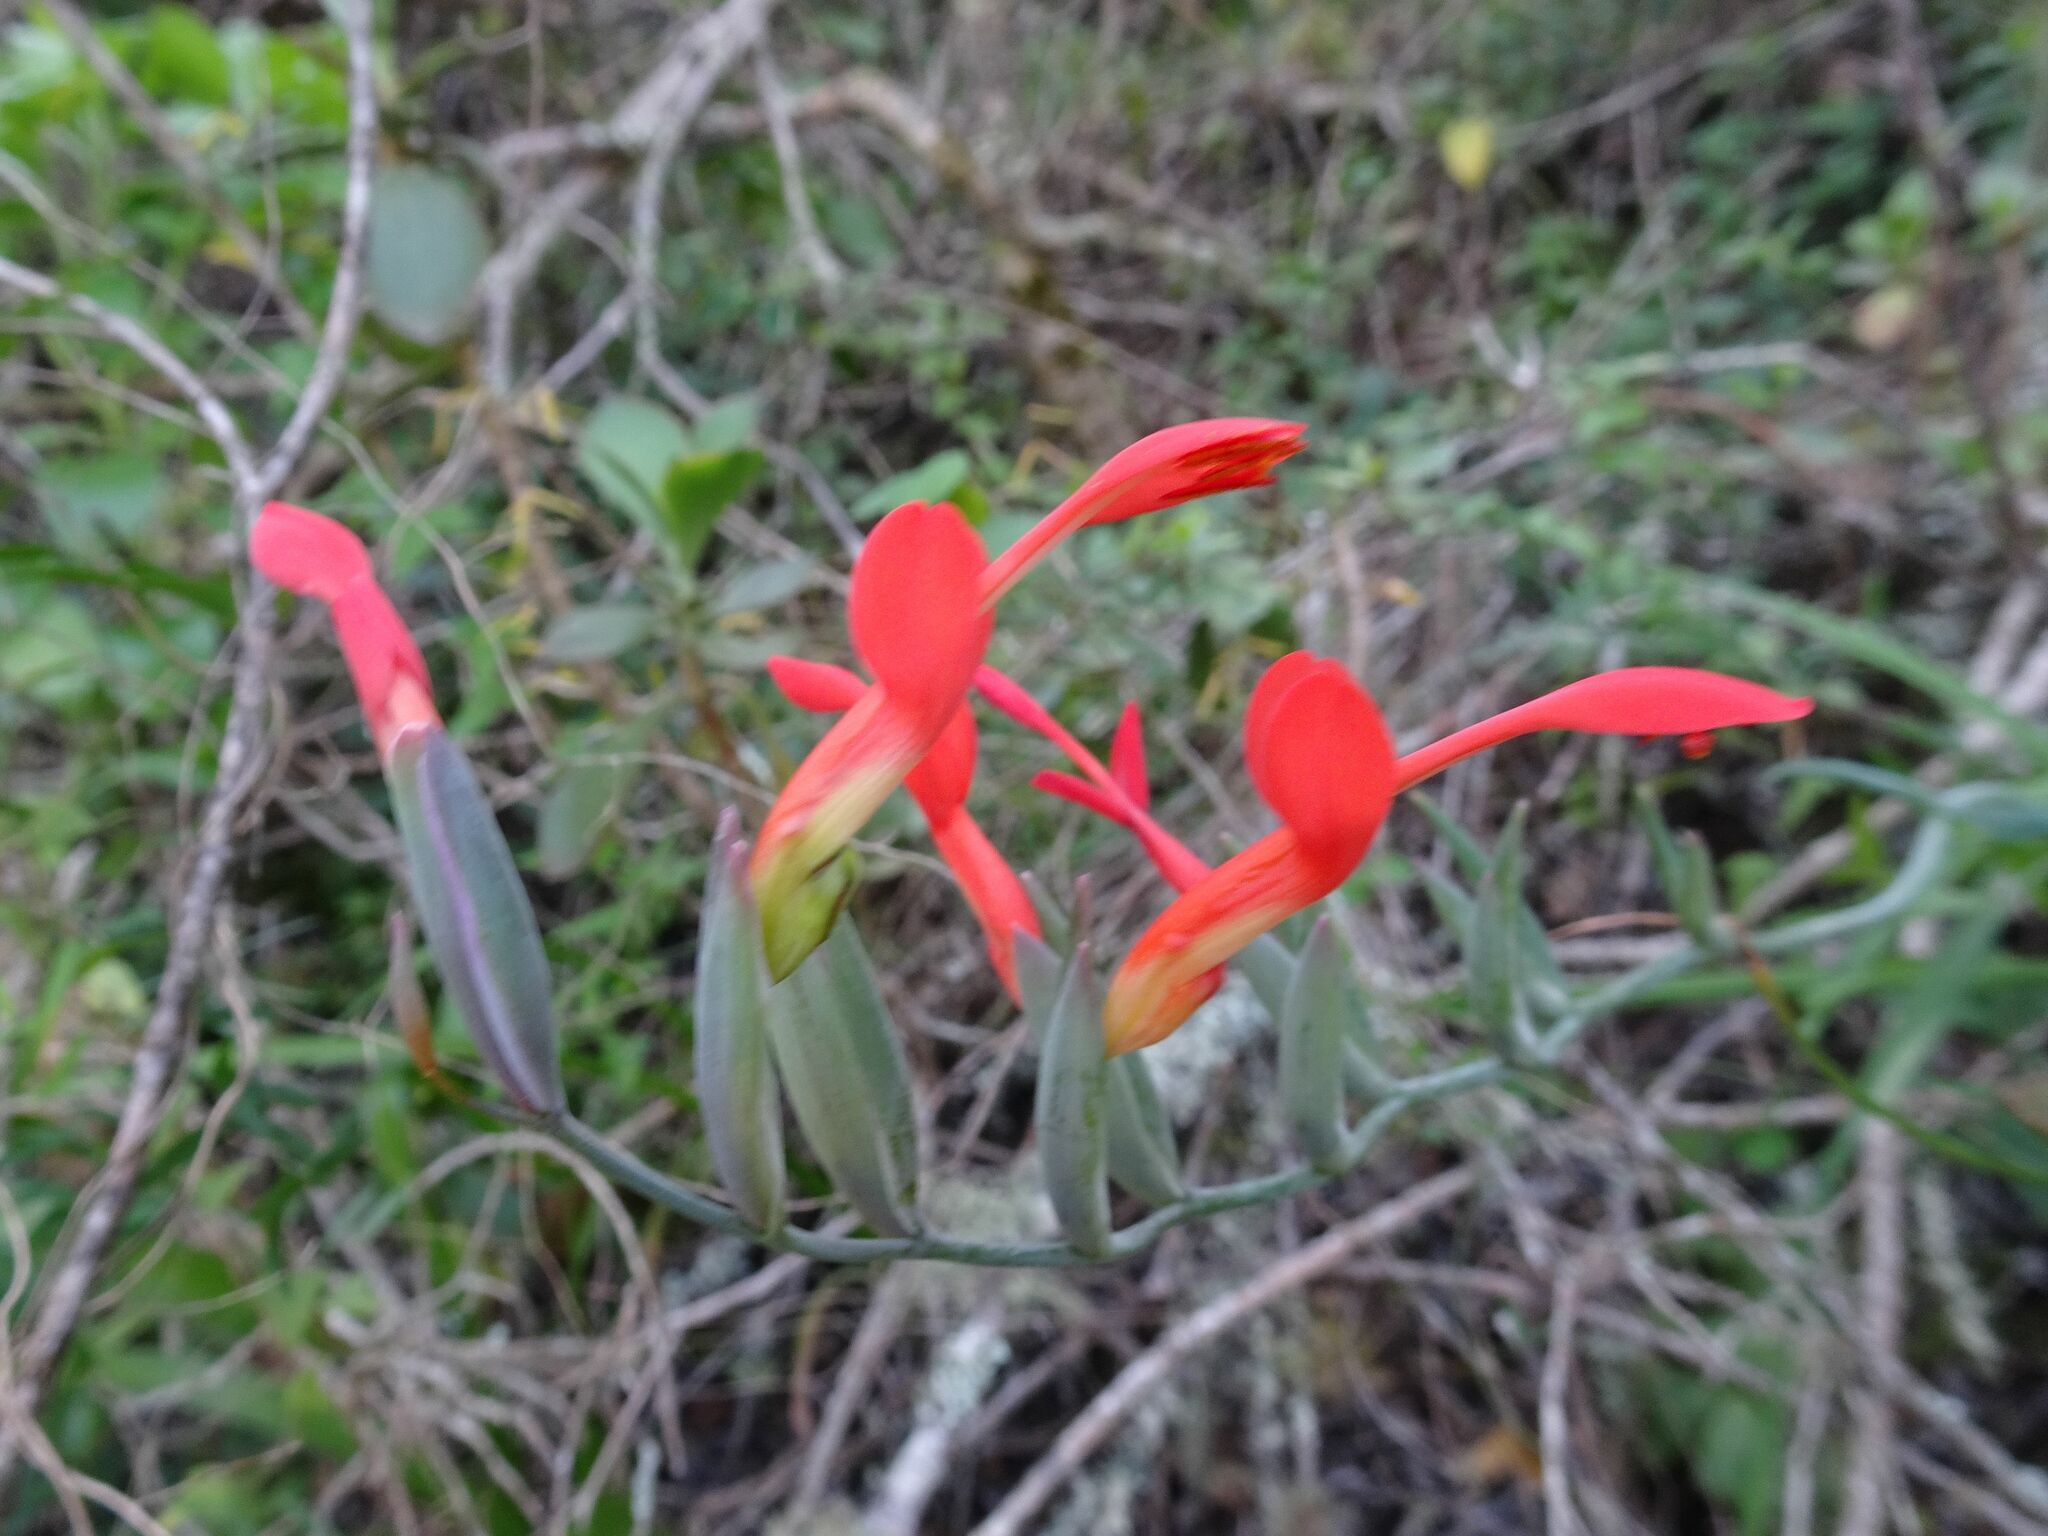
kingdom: Plantae
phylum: Tracheophyta
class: Liliopsida
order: Asparagales
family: Iridaceae
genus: Gladiolus
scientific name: Gladiolus cunonius
